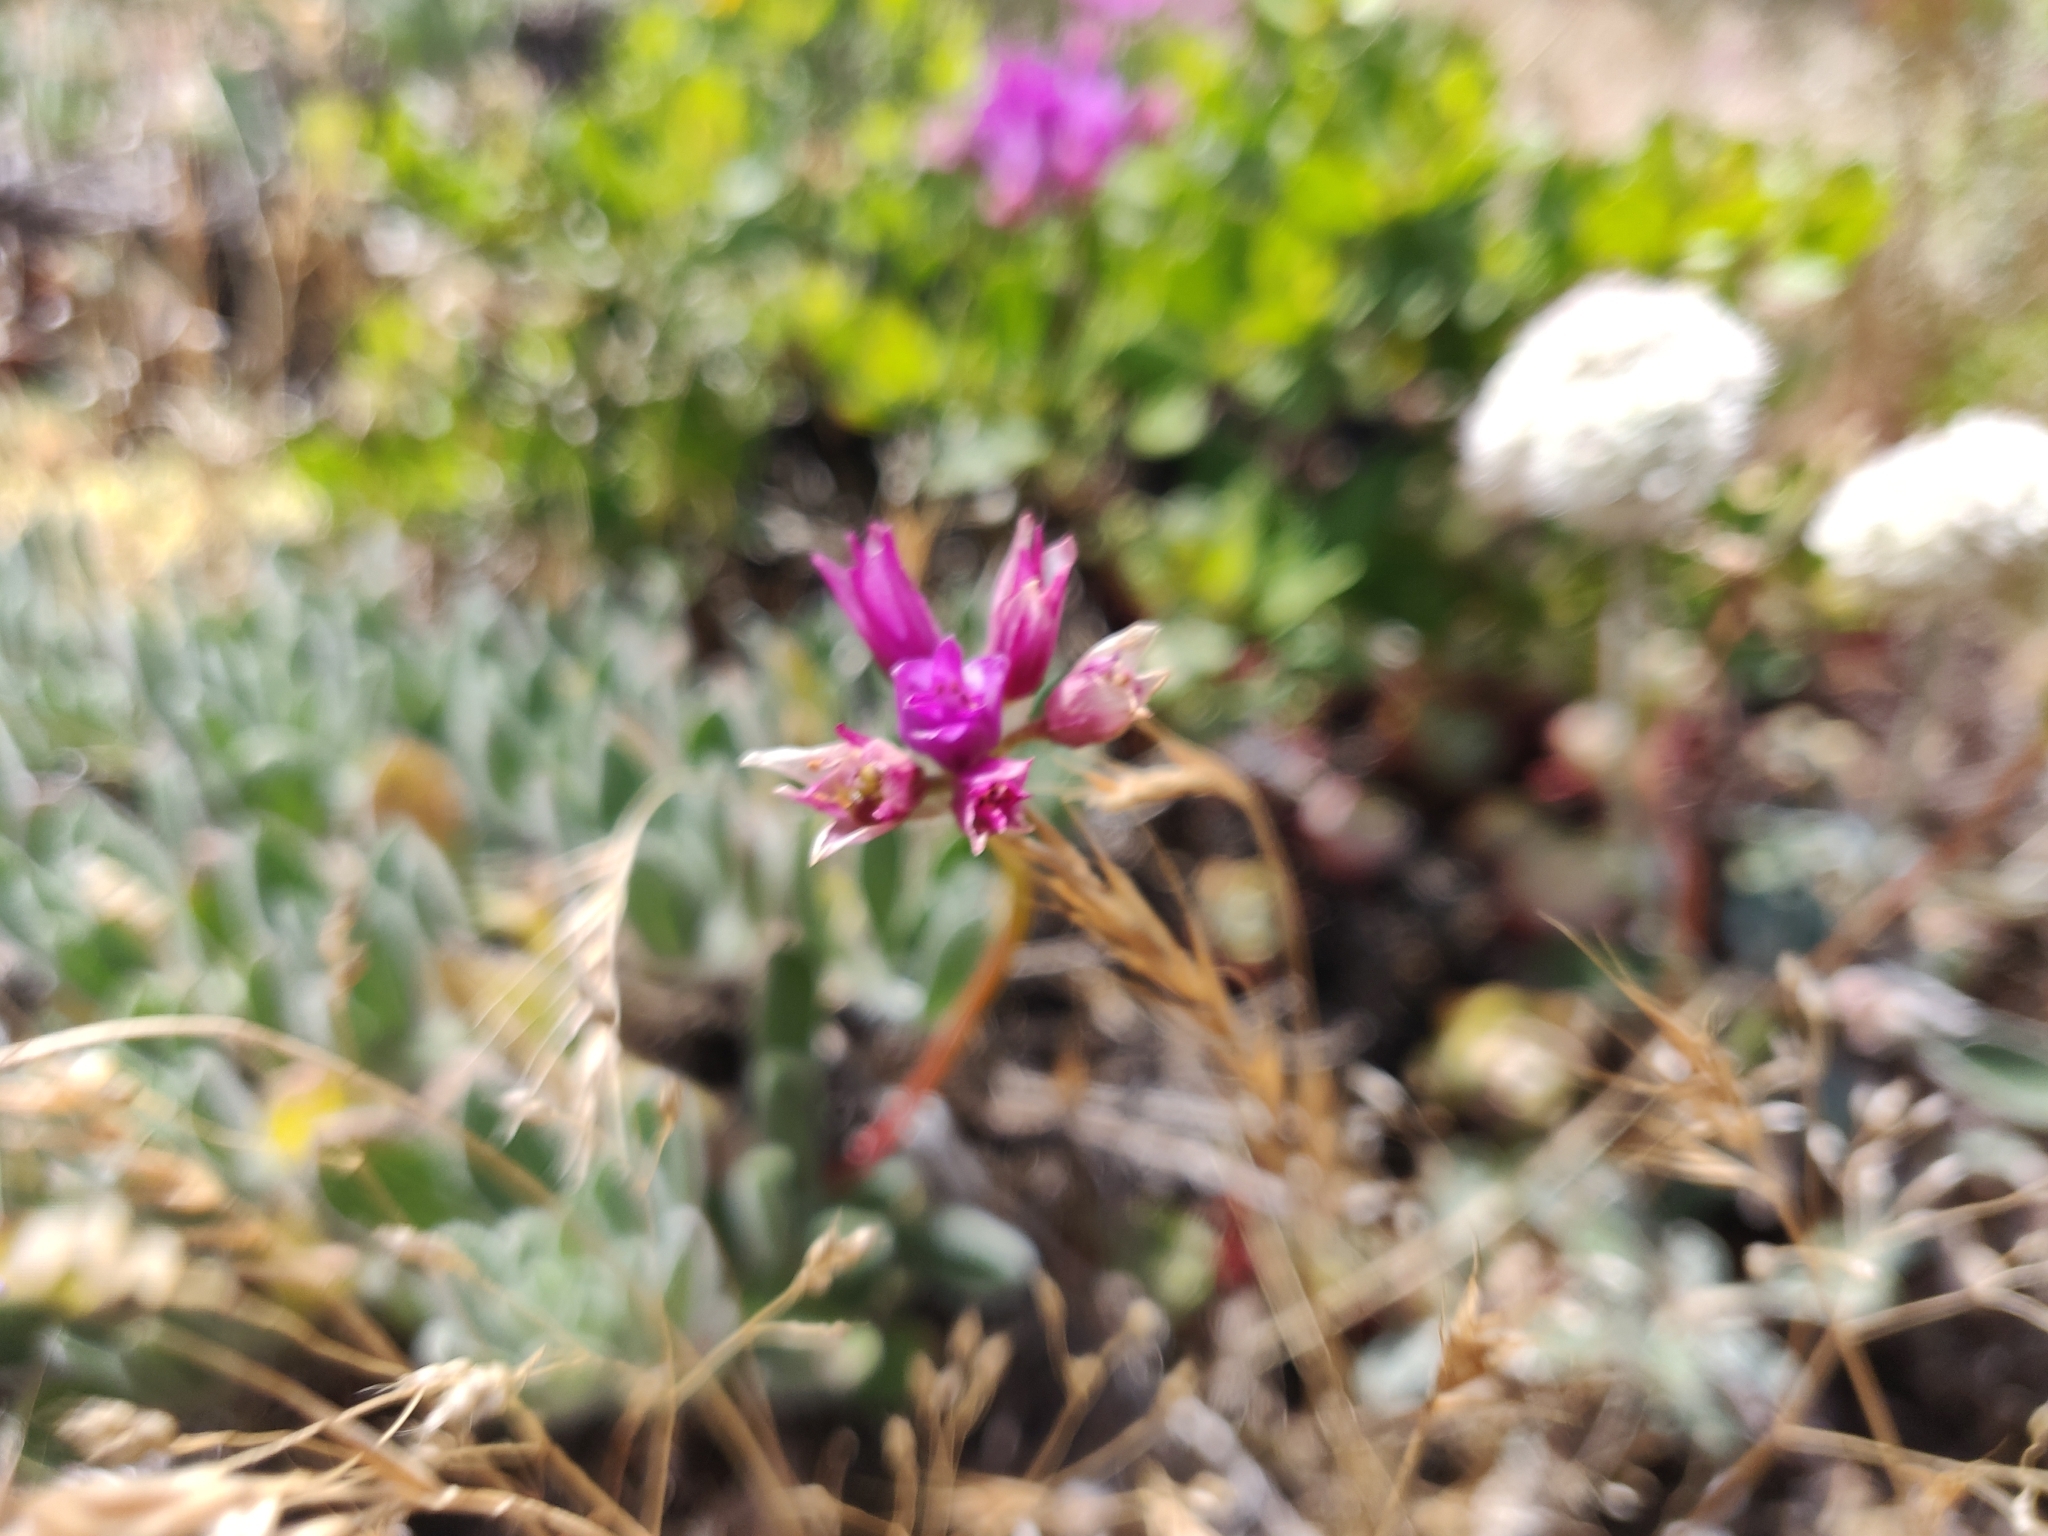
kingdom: Plantae
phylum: Tracheophyta
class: Liliopsida
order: Asparagales
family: Amaryllidaceae
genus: Allium
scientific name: Allium dichlamydeum
